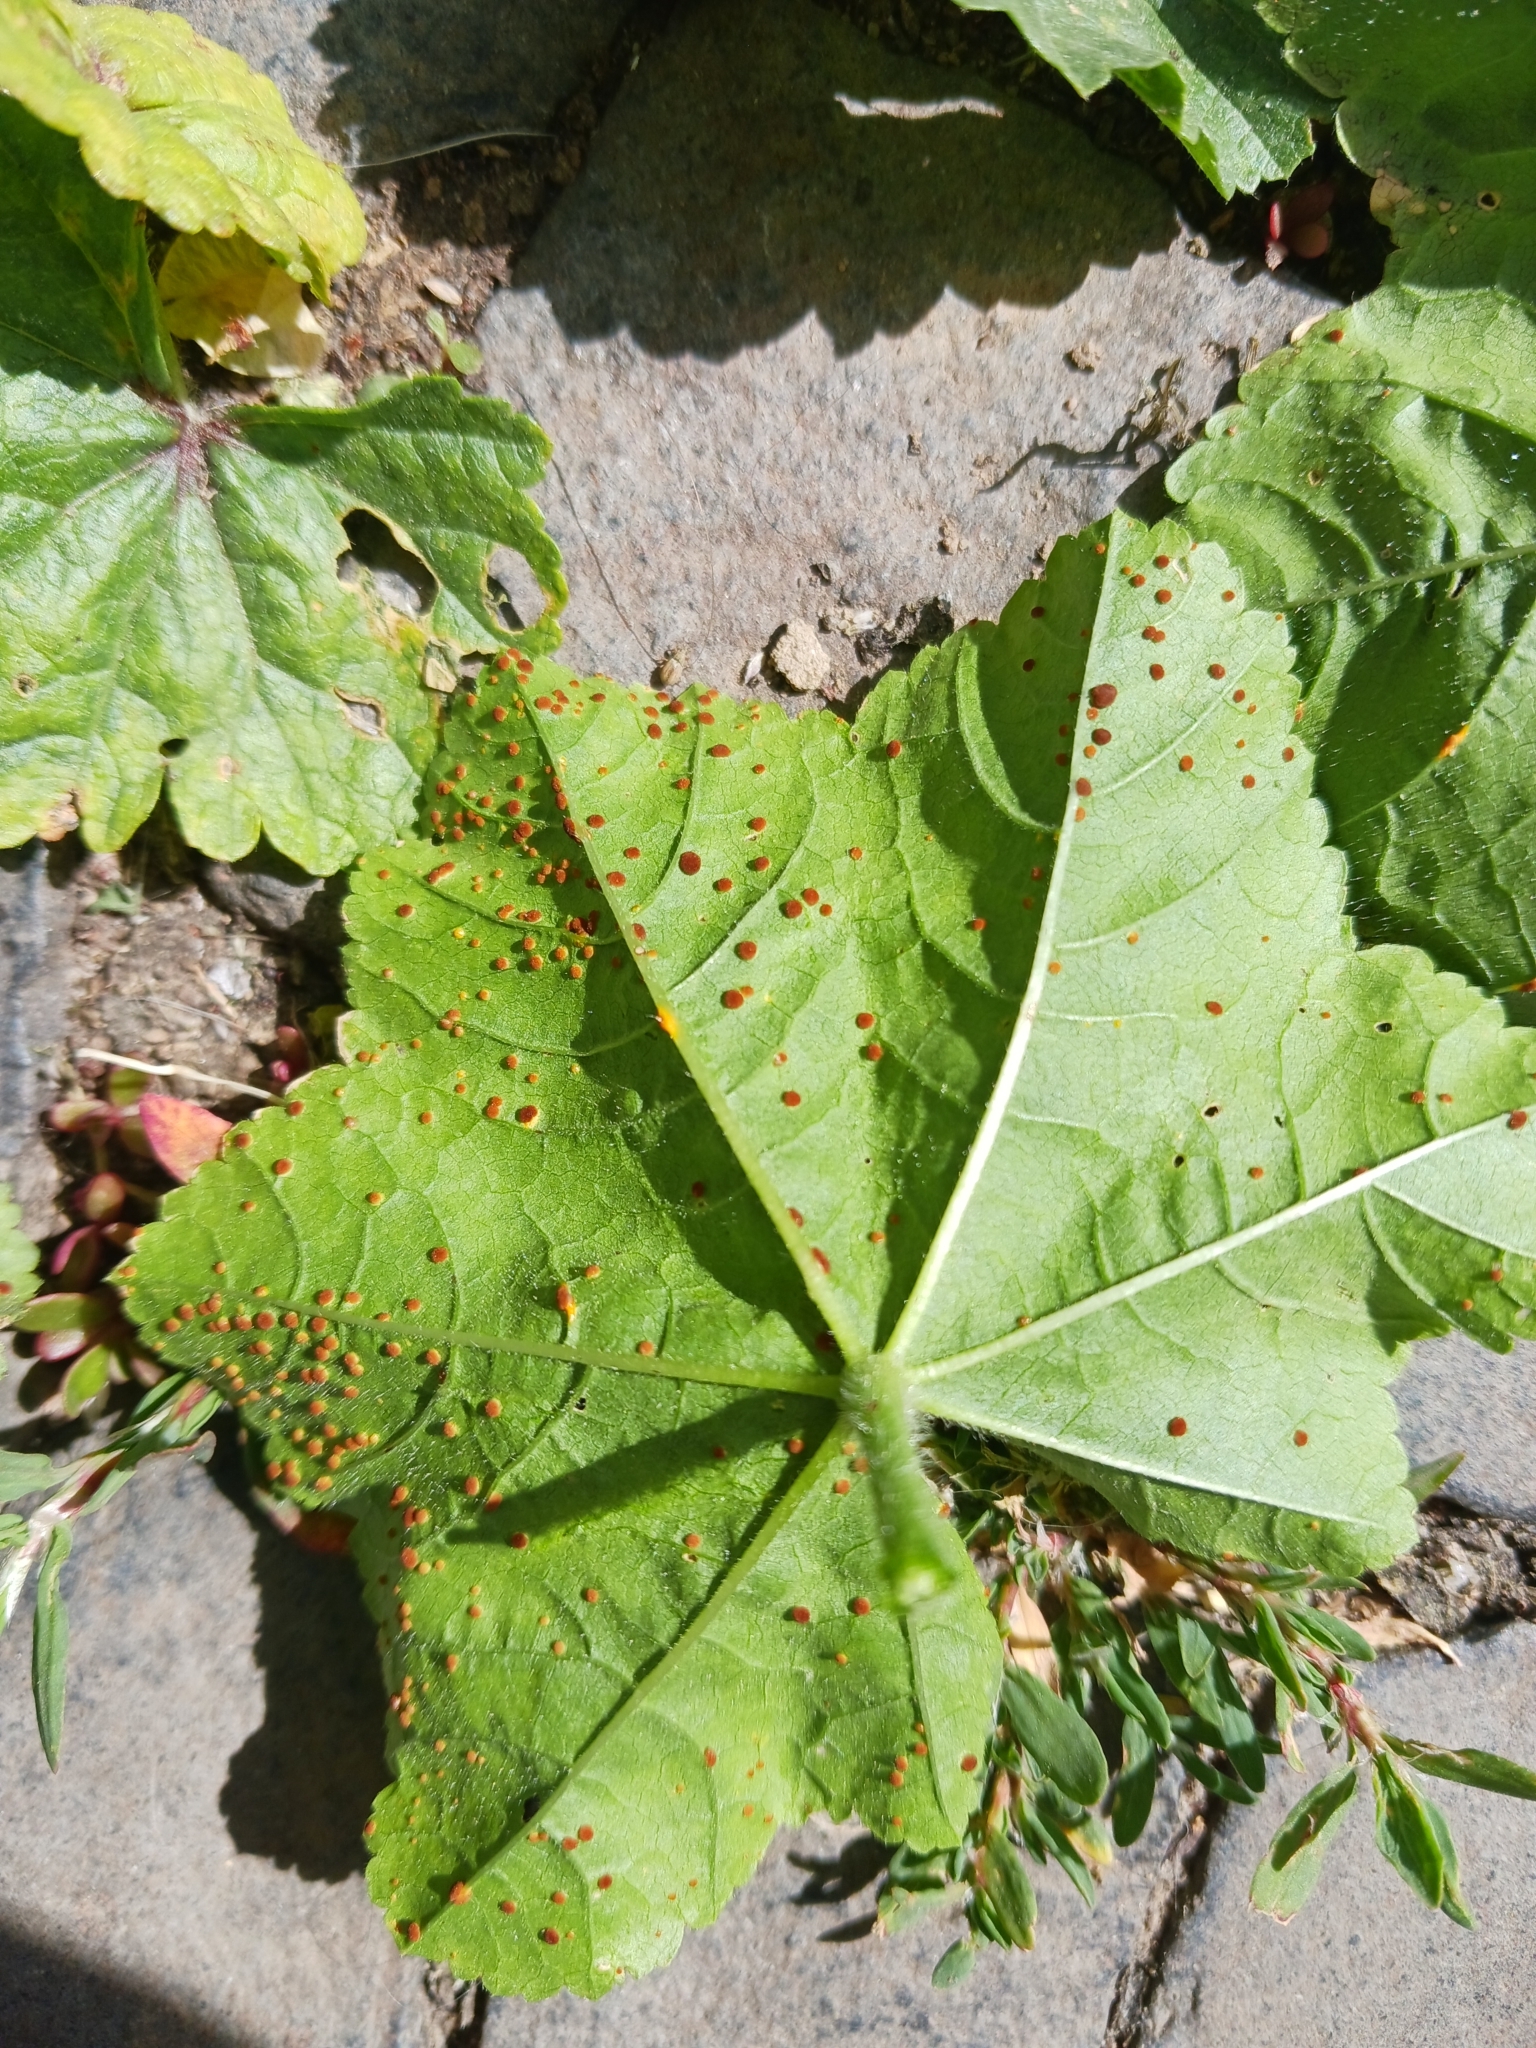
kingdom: Fungi
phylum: Basidiomycota
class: Pucciniomycetes
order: Pucciniales
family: Pucciniaceae
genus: Puccinia
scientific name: Puccinia malvacearum
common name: Hollyhock rust
